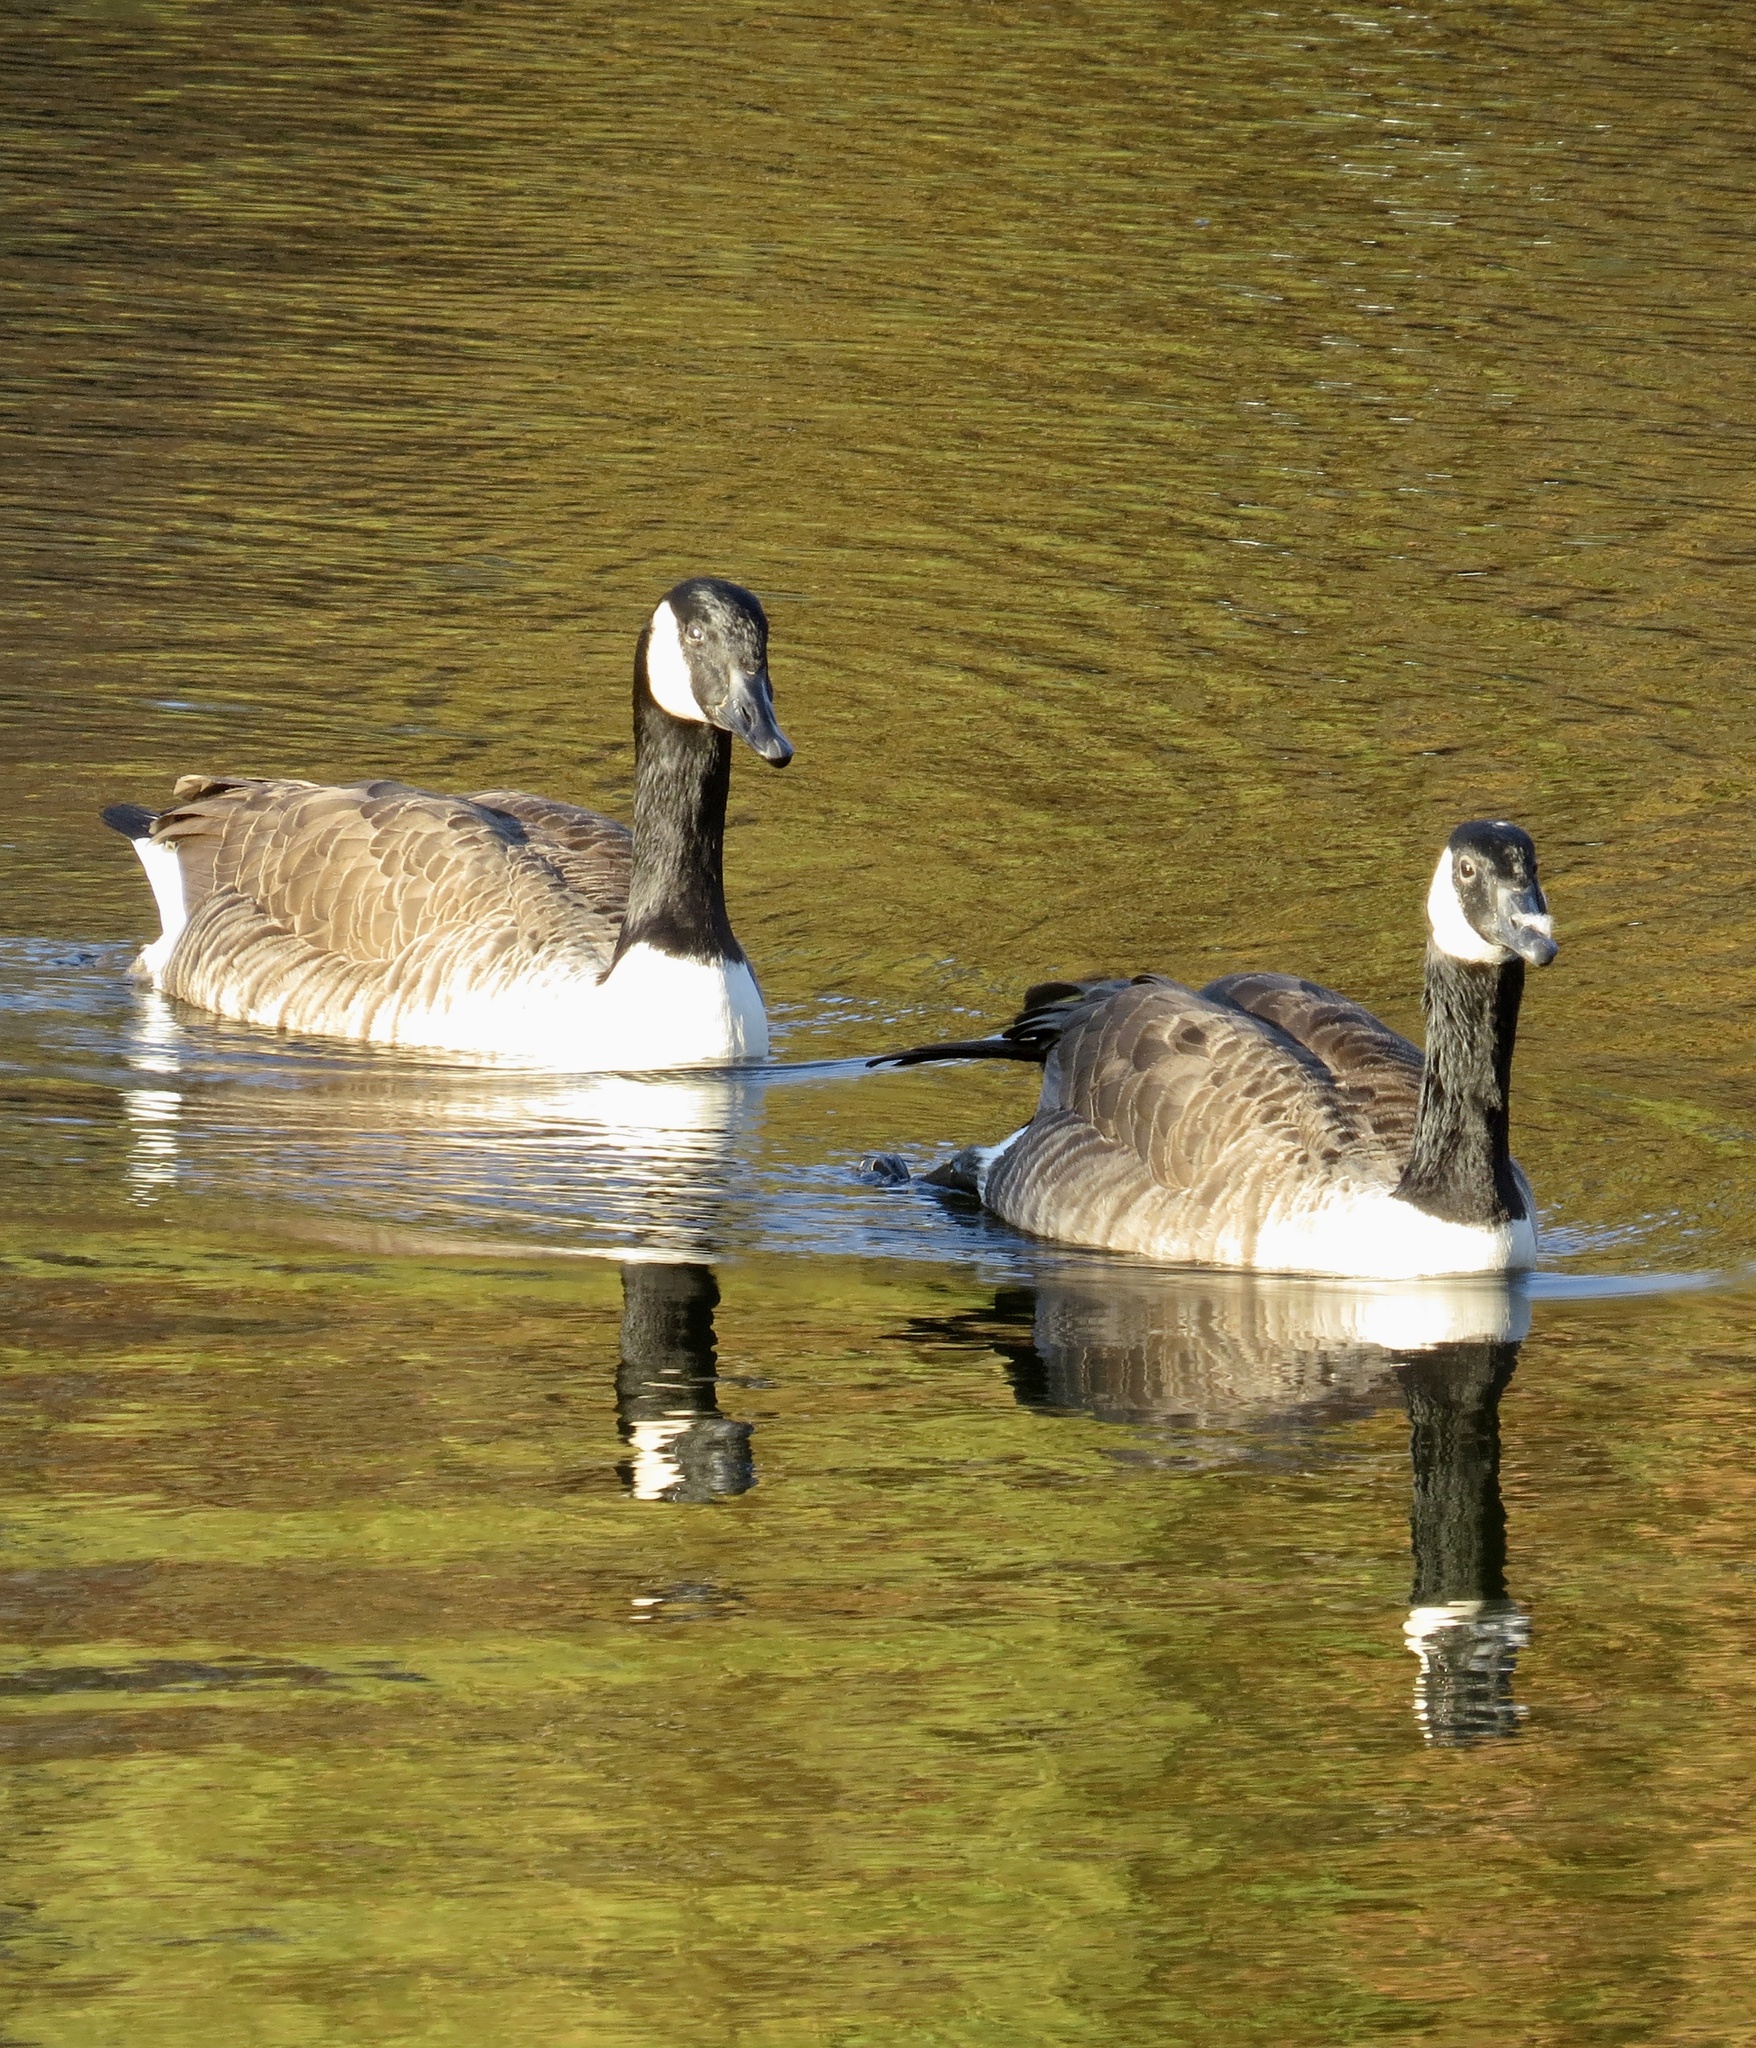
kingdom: Animalia
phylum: Chordata
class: Aves
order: Anseriformes
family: Anatidae
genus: Branta
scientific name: Branta canadensis
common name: Canada goose
